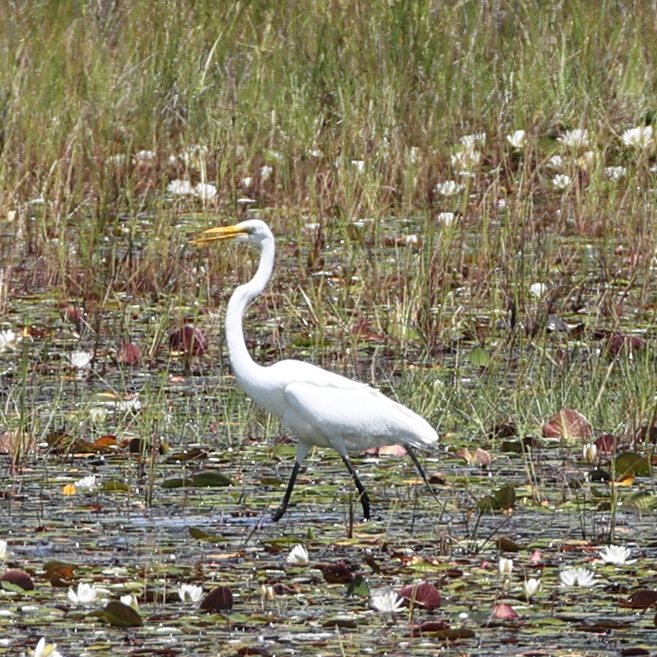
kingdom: Animalia
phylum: Chordata
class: Aves
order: Pelecaniformes
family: Ardeidae
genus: Ardea
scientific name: Ardea alba
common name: Great egret
